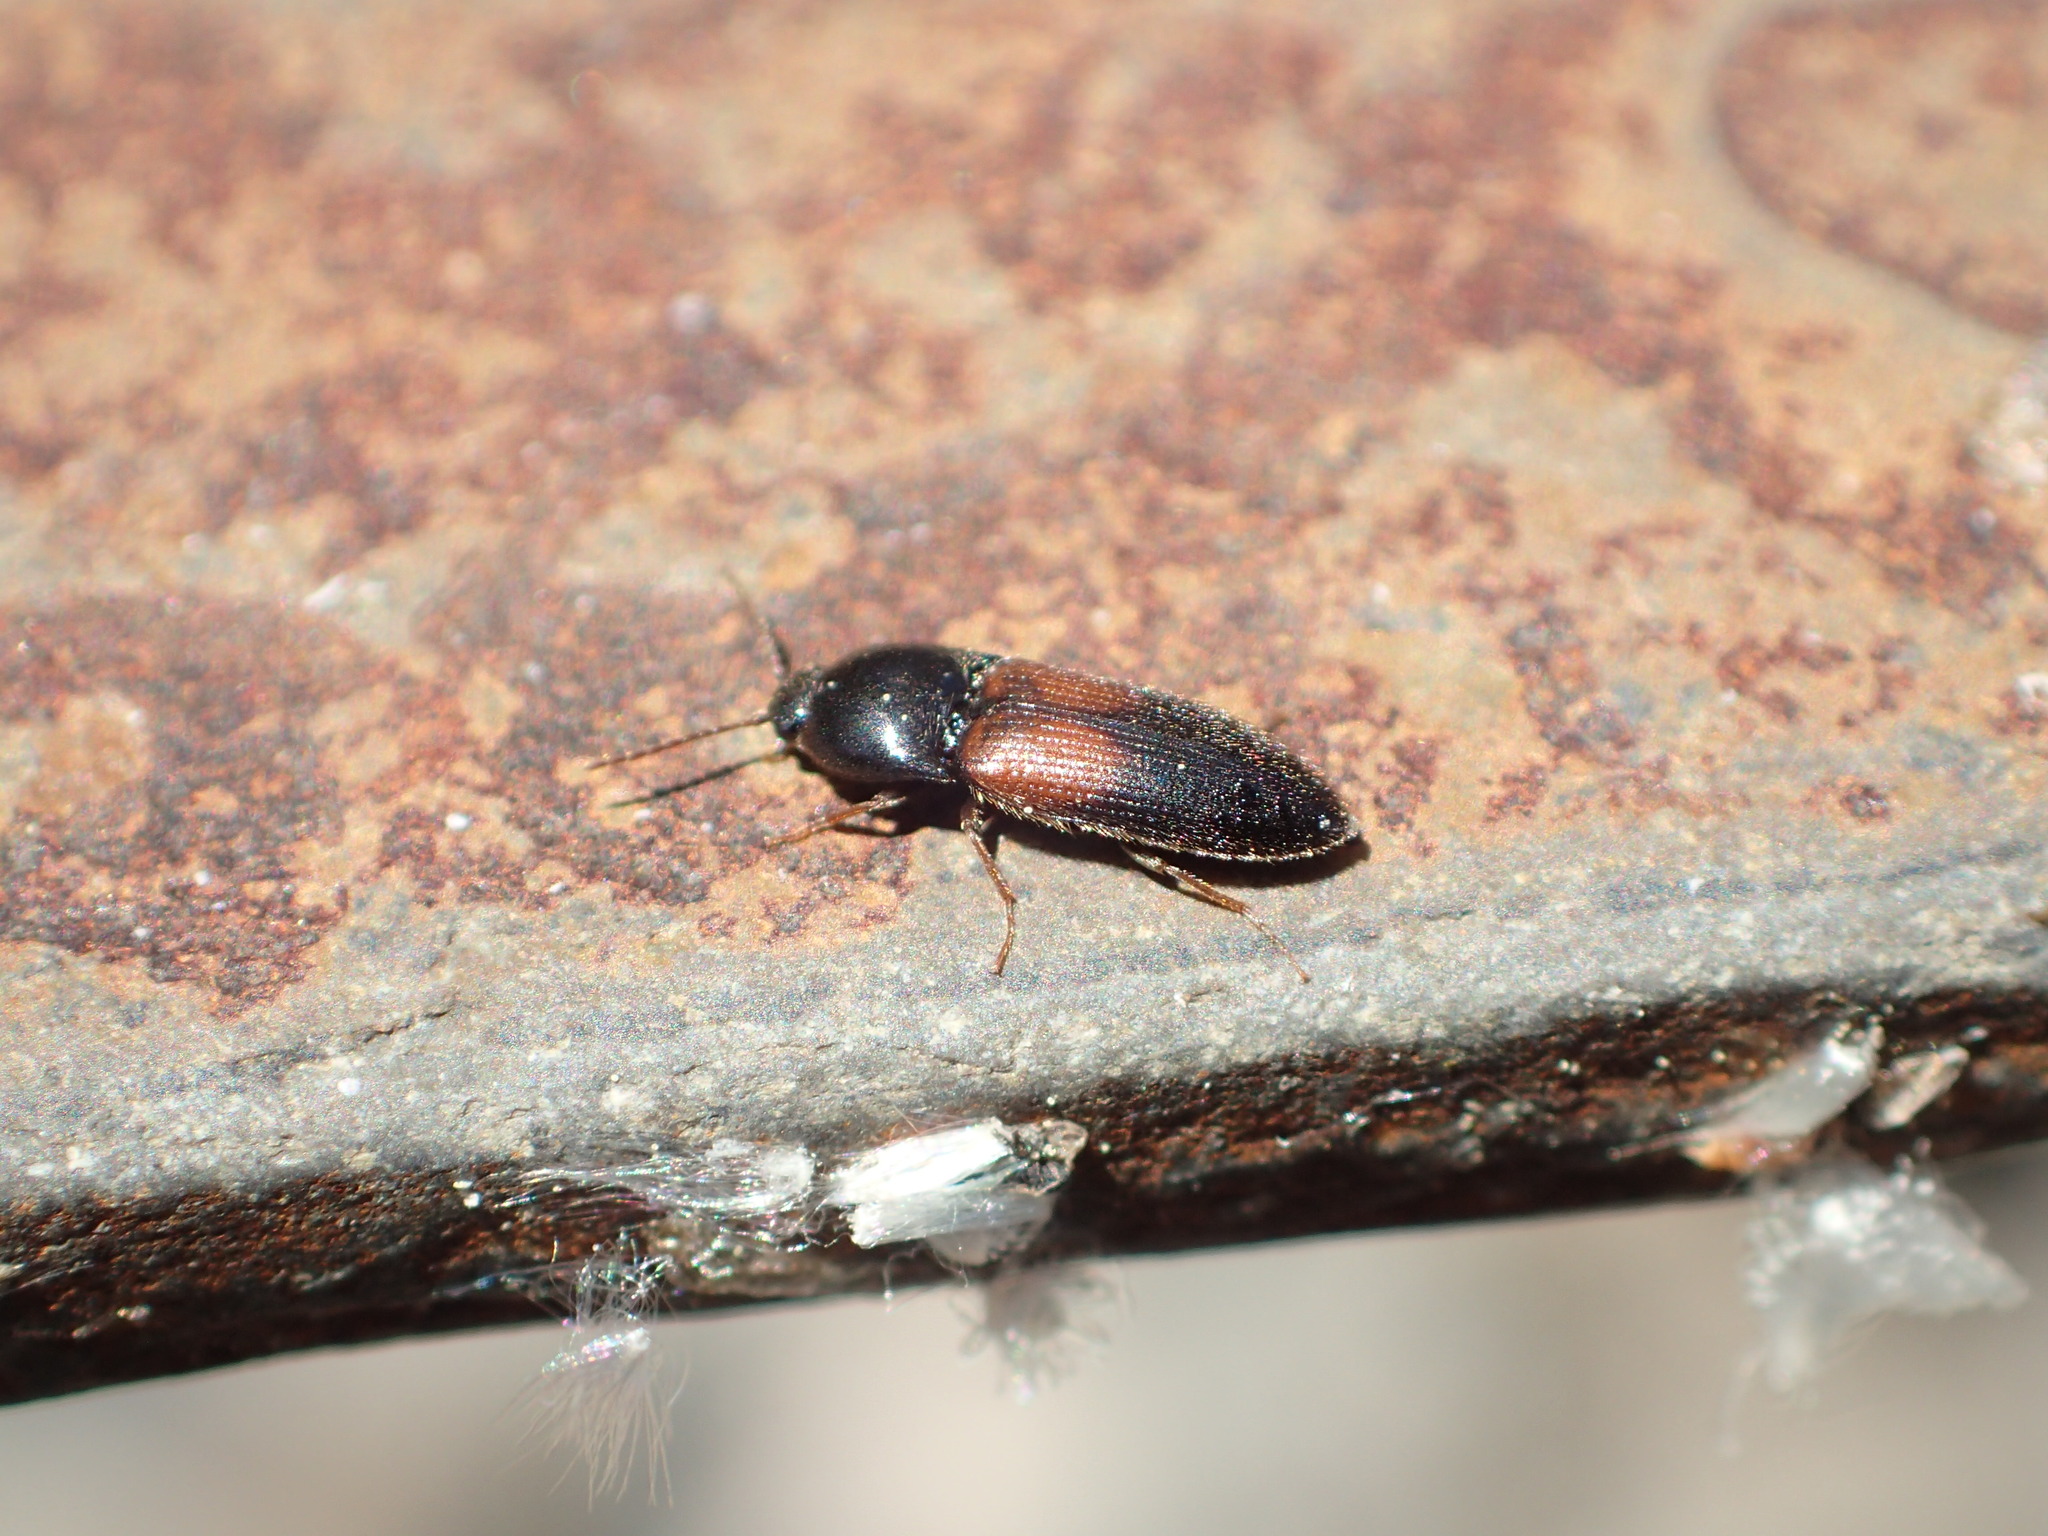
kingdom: Animalia
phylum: Arthropoda
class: Insecta
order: Coleoptera
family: Elateridae
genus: Ampedus
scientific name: Ampedus pullus
